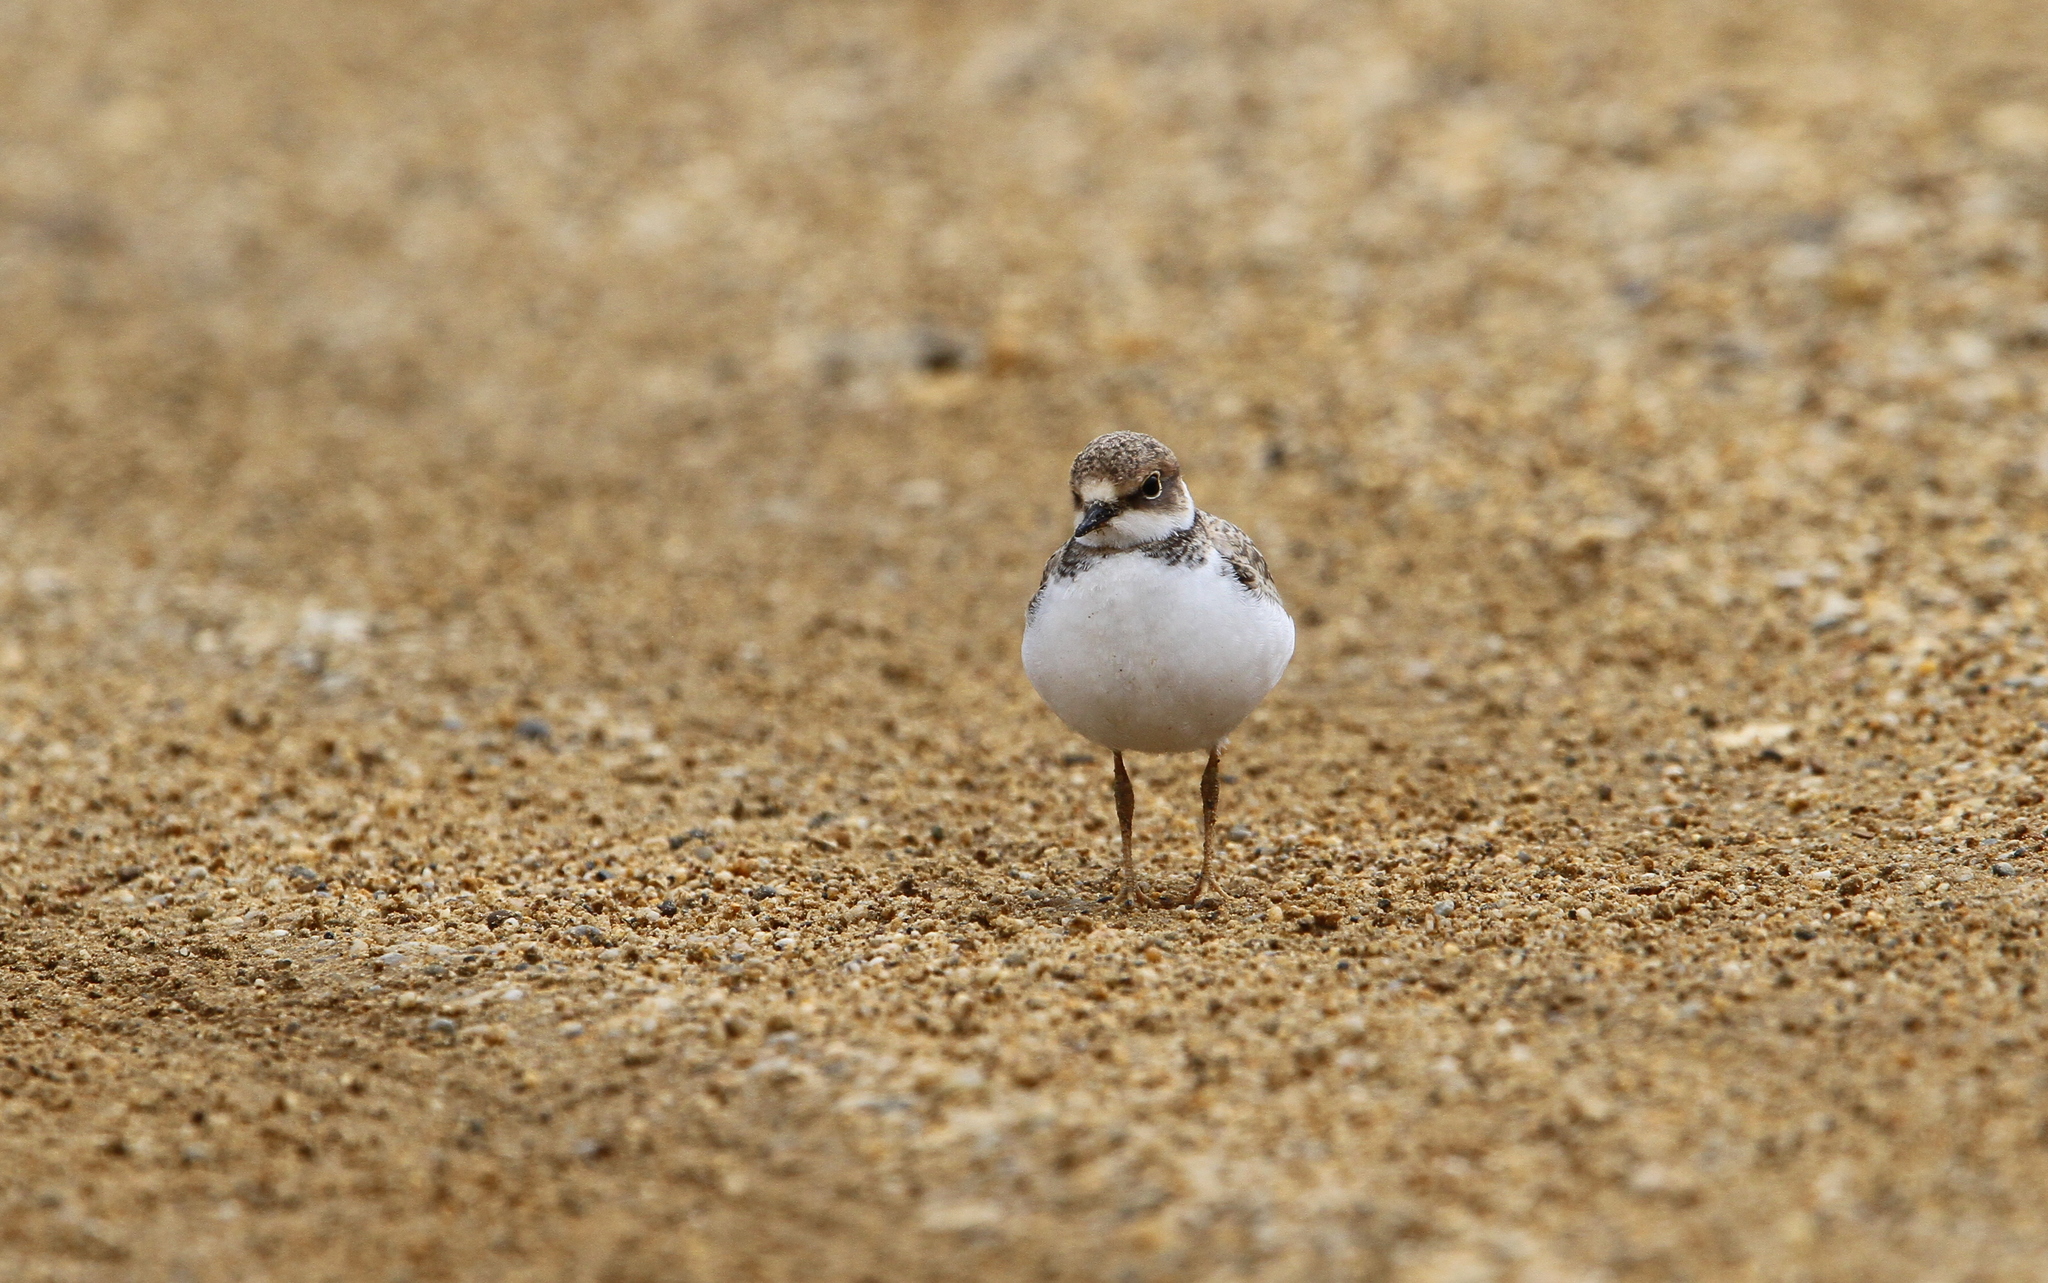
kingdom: Animalia
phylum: Chordata
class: Aves
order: Charadriiformes
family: Charadriidae
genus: Charadrius
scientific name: Charadrius dubius
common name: Little ringed plover
